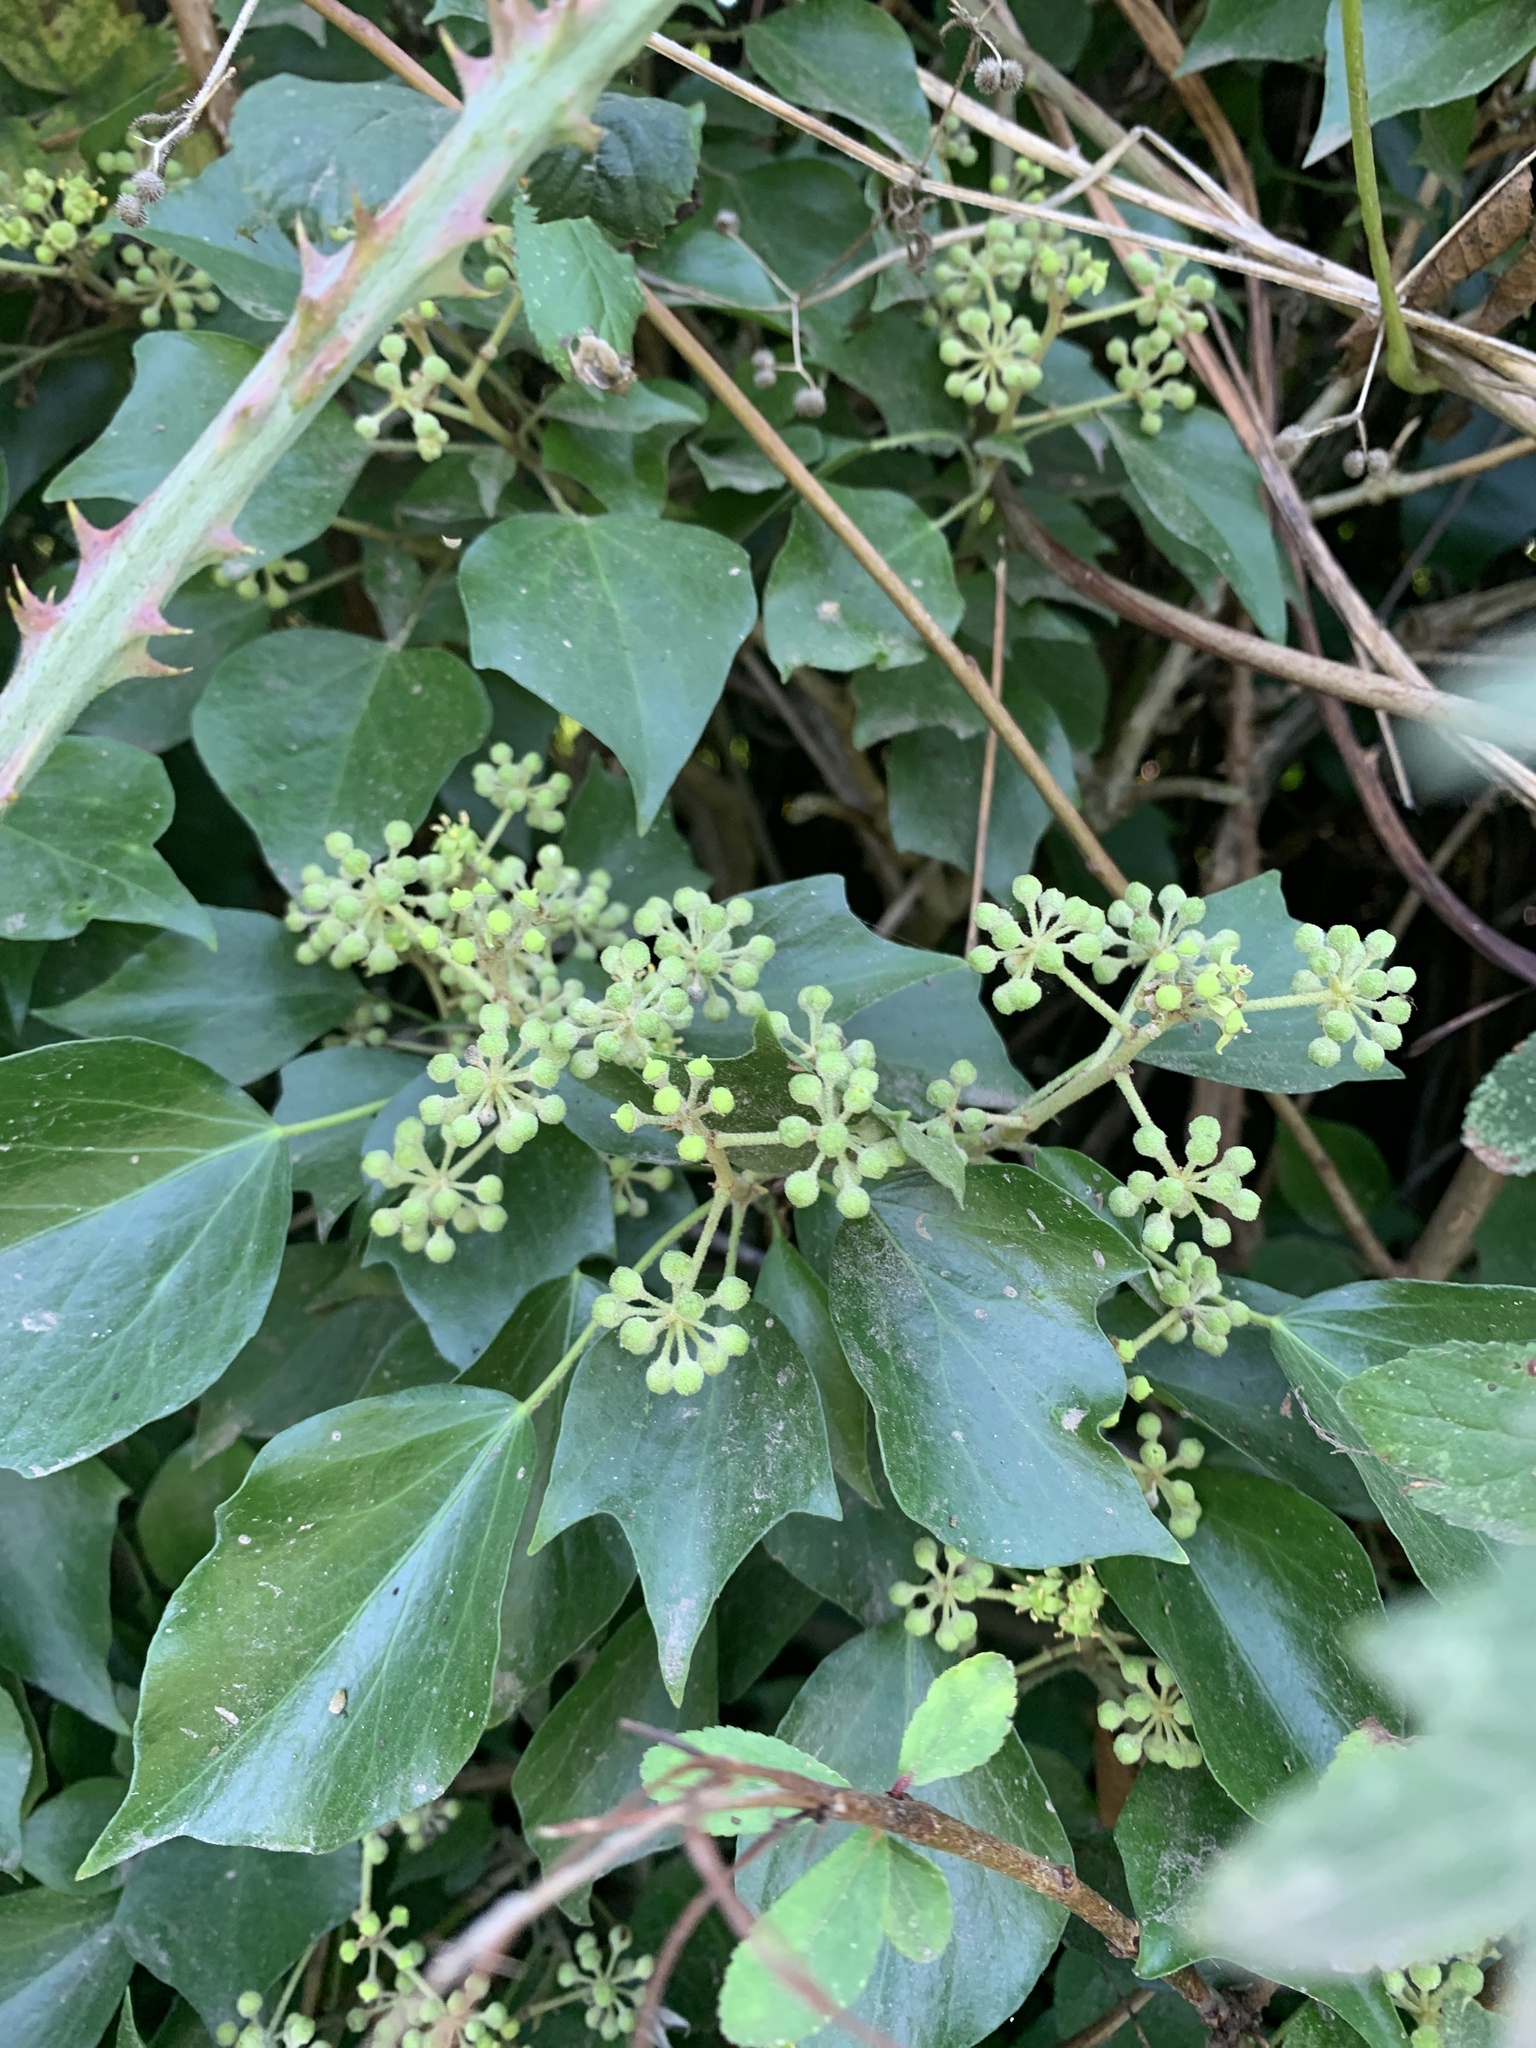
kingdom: Plantae
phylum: Tracheophyta
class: Magnoliopsida
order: Apiales
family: Araliaceae
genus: Hedera
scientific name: Hedera helix
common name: Ivy
